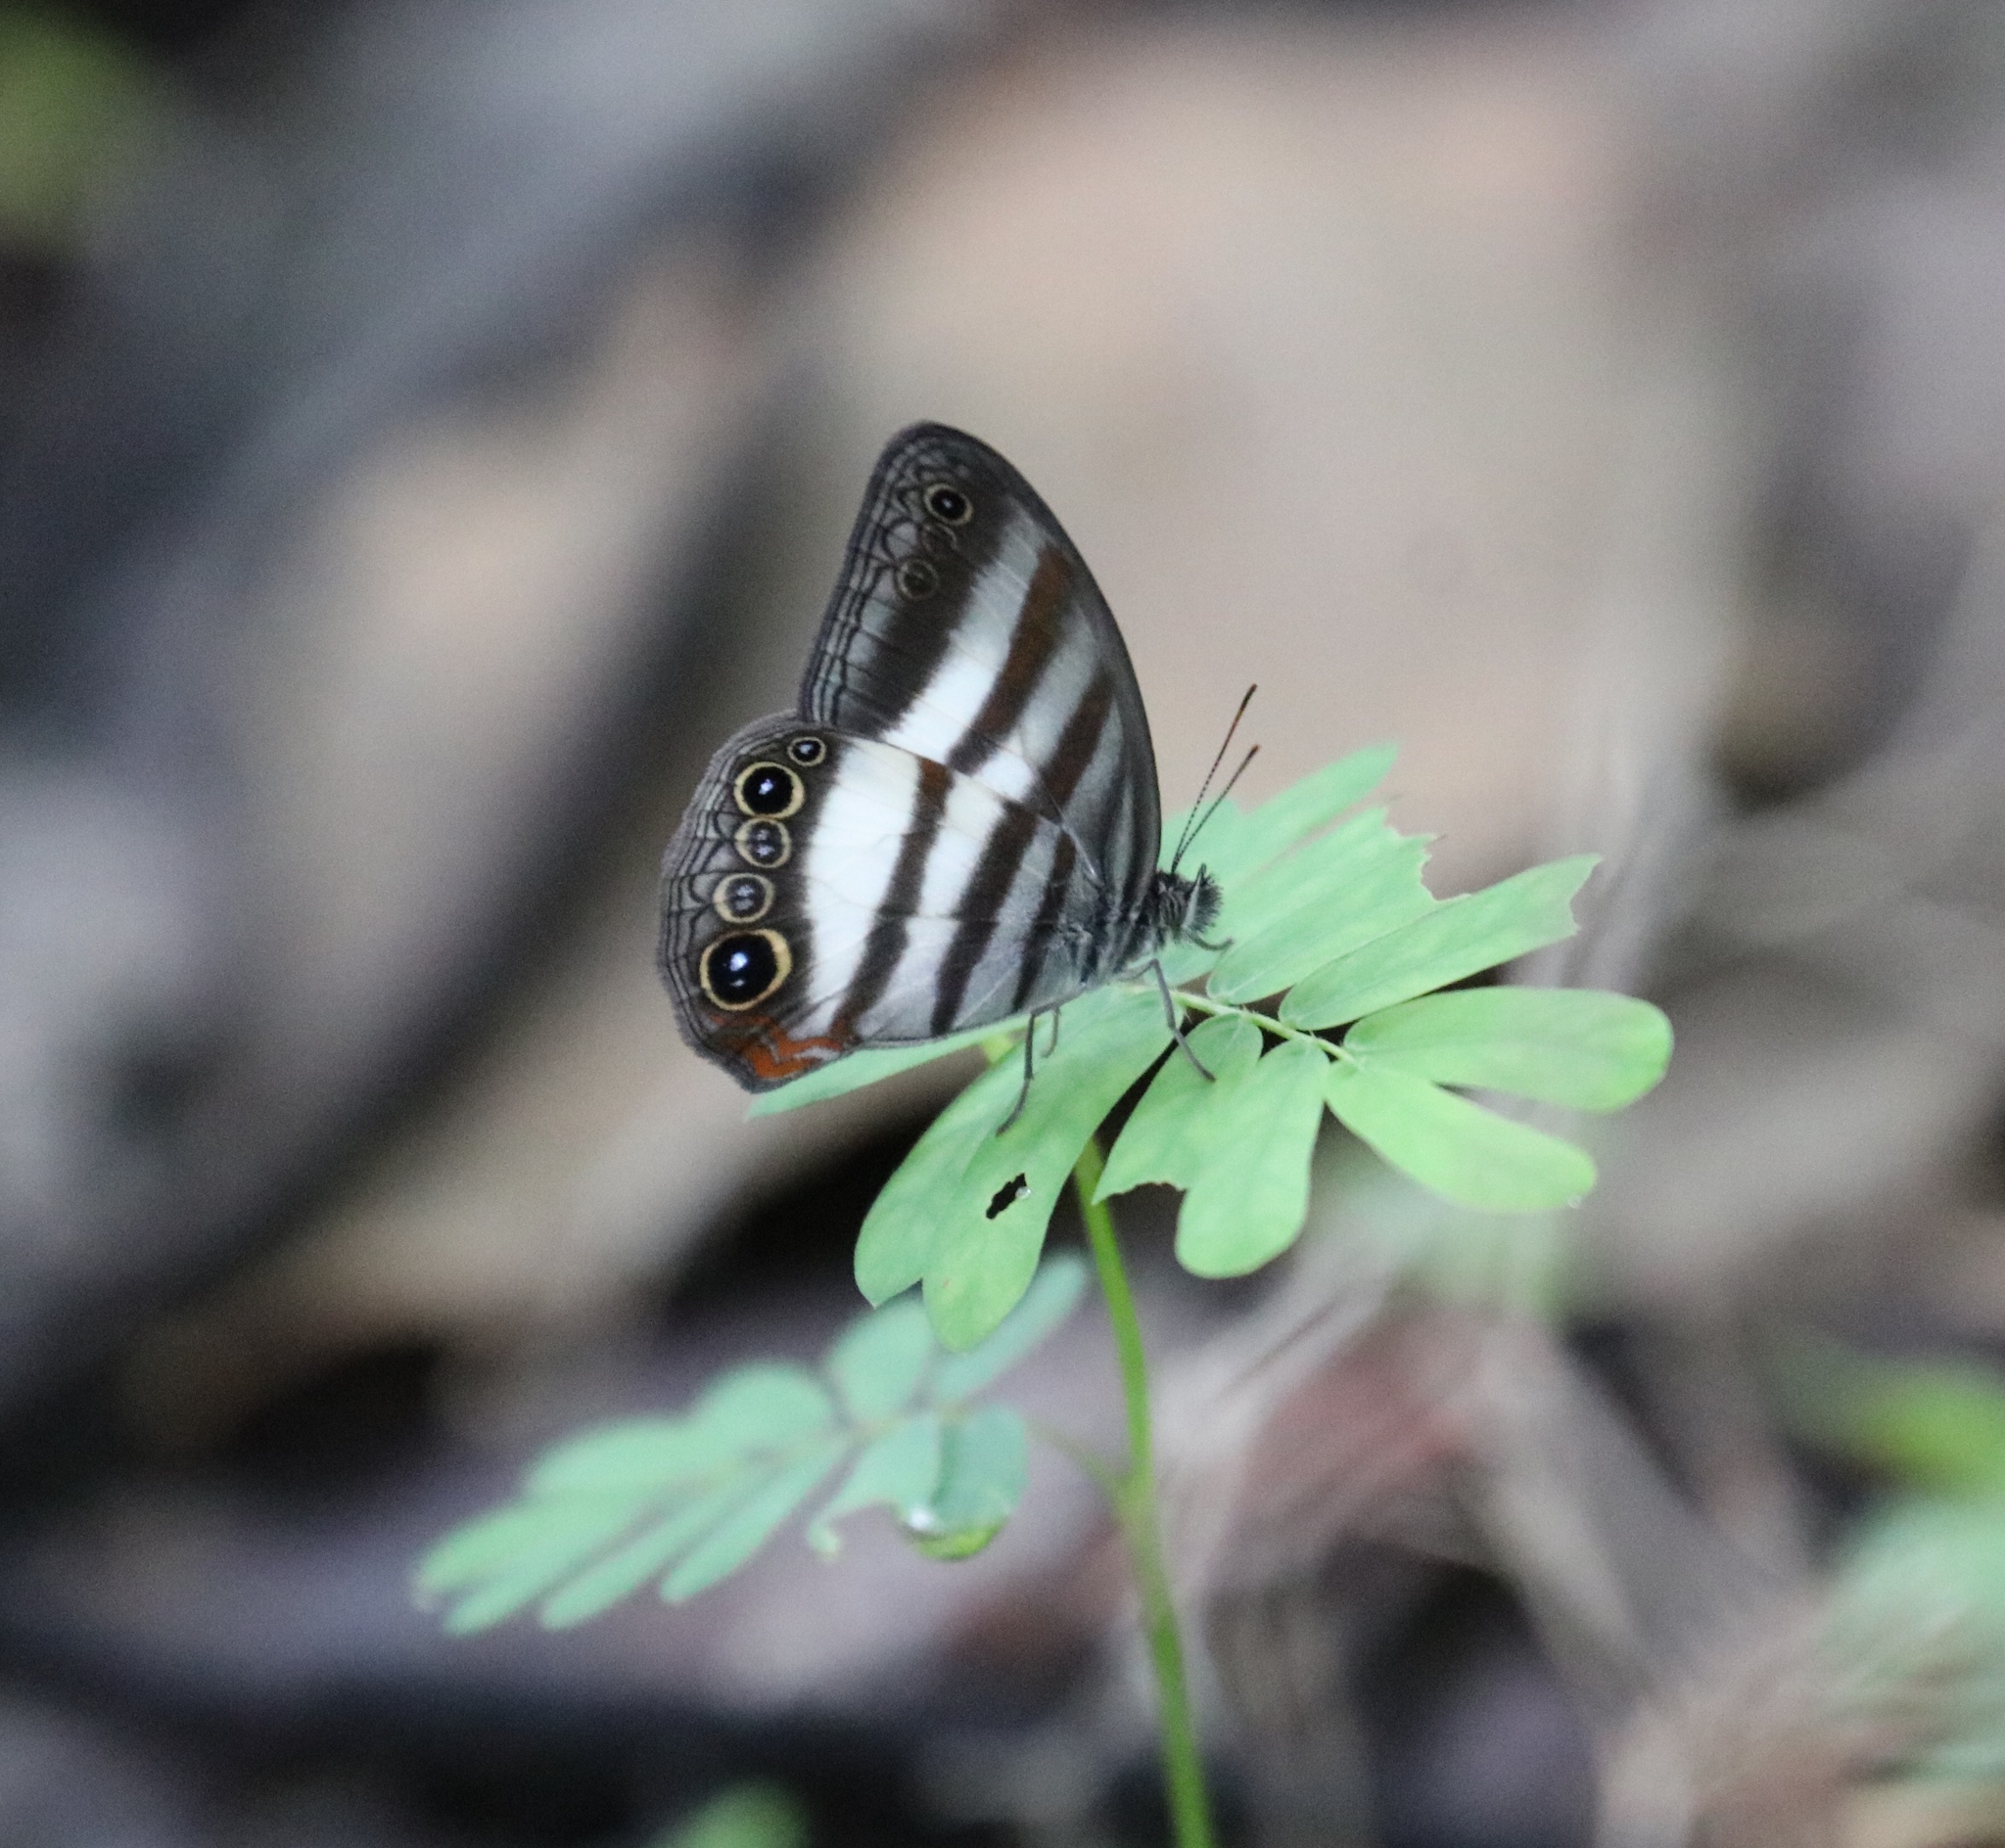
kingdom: Animalia
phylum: Arthropoda
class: Insecta
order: Lepidoptera
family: Nymphalidae
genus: Pareuptychia
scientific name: Pareuptychia hesione
